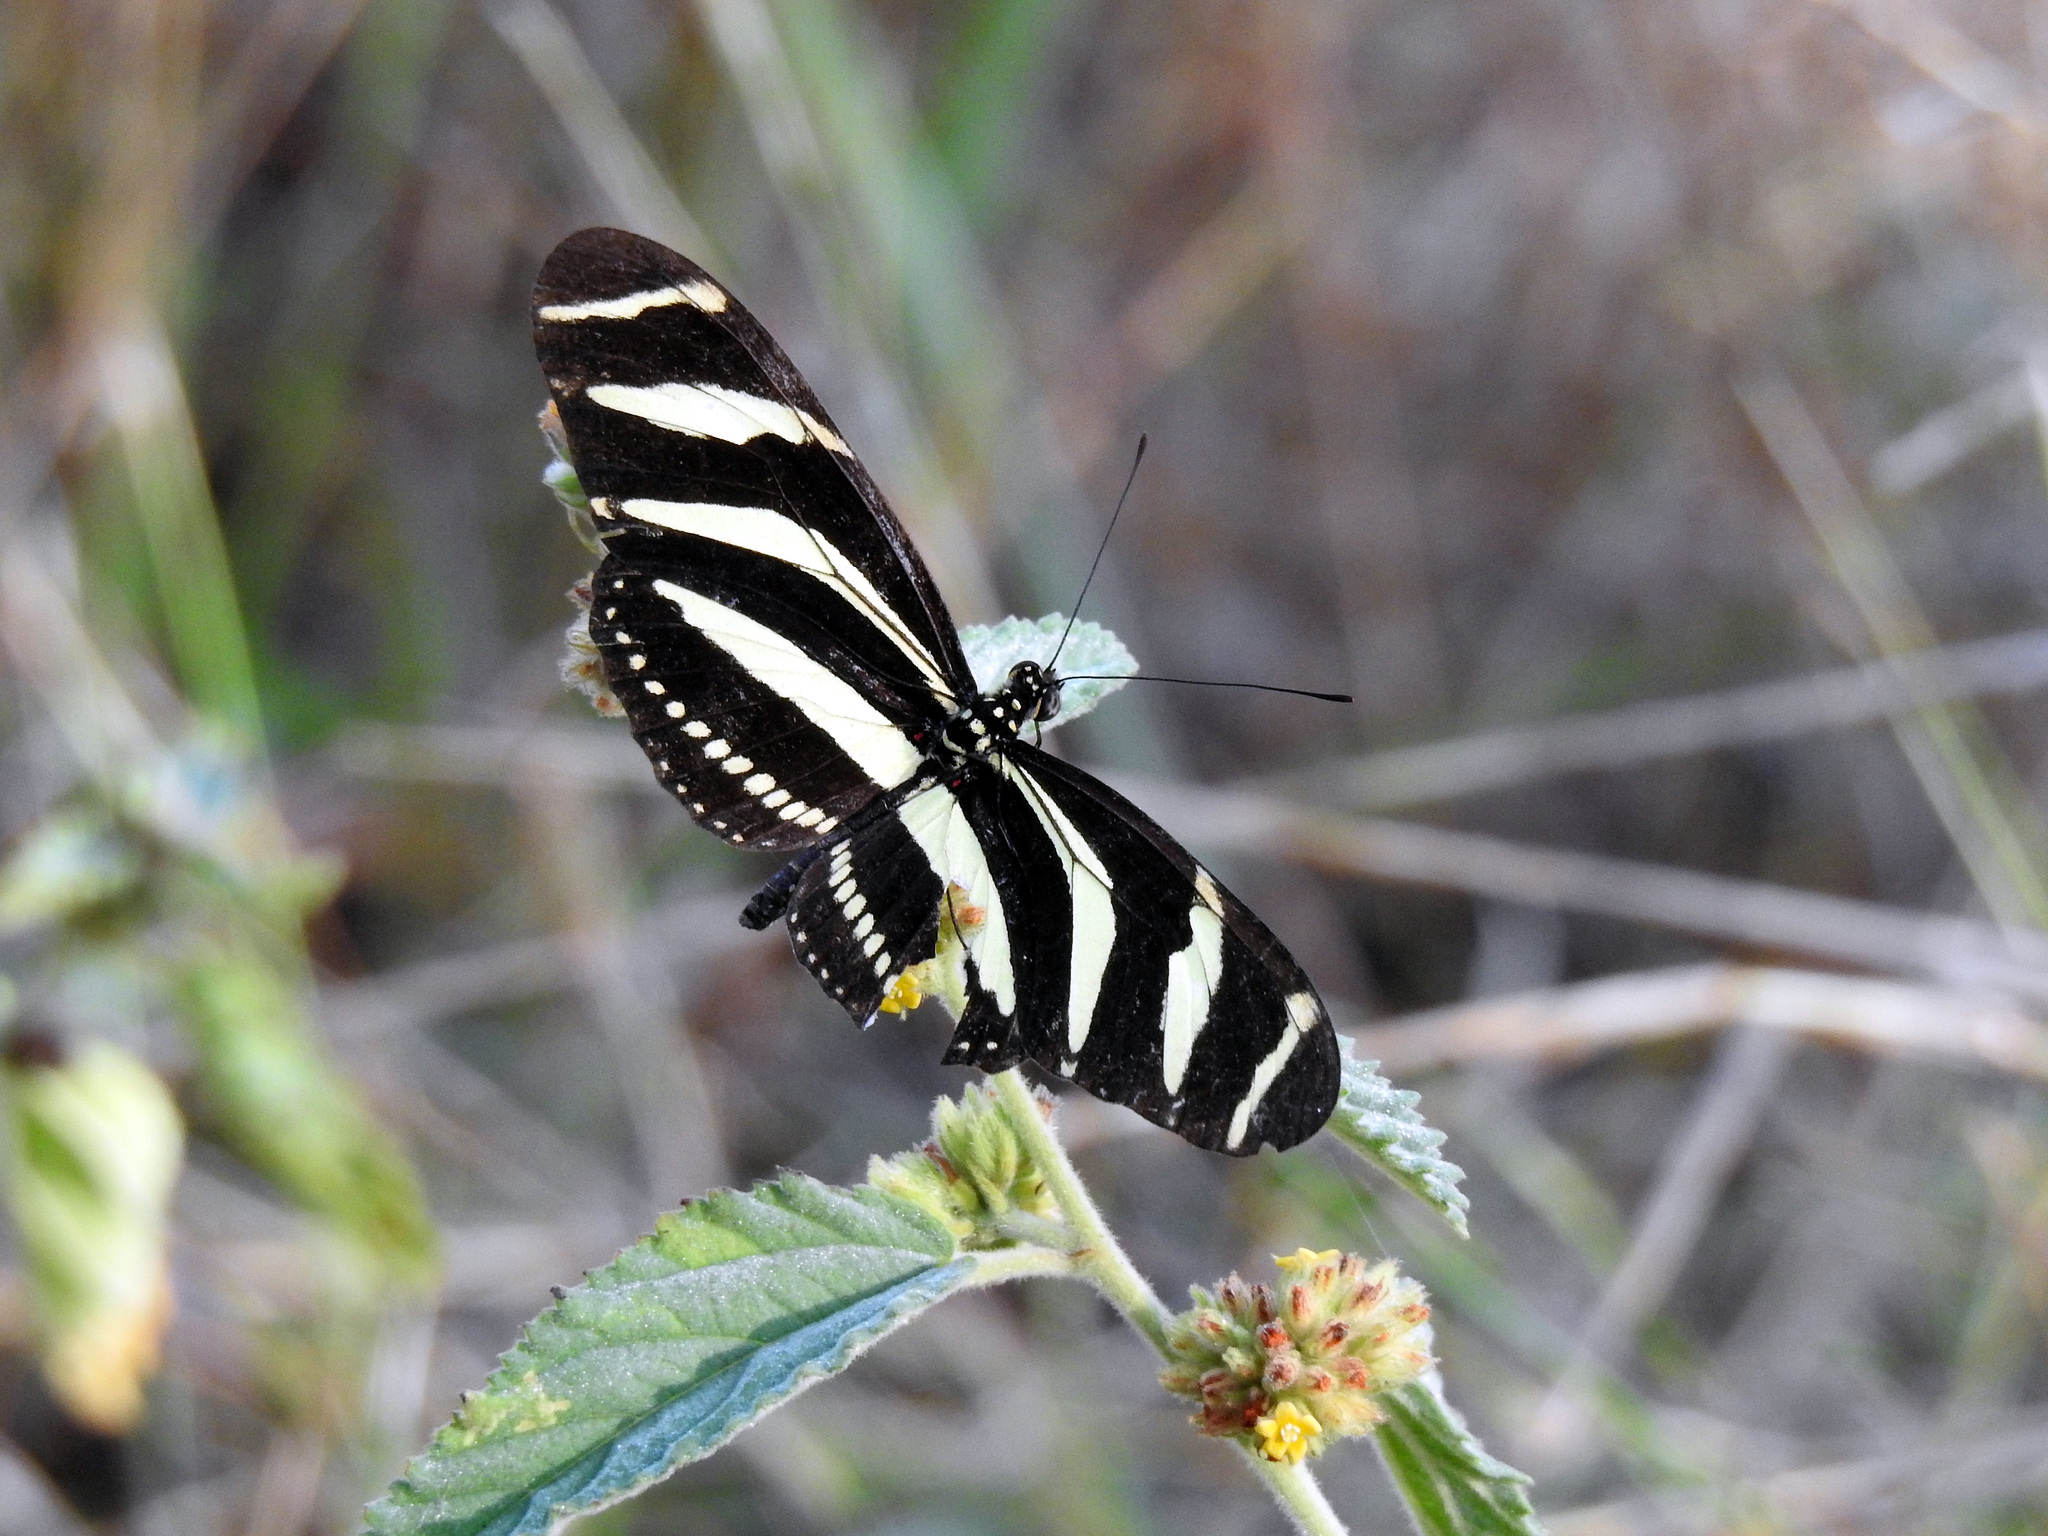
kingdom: Animalia
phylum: Arthropoda
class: Insecta
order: Lepidoptera
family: Nymphalidae
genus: Heliconius
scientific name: Heliconius charithonia
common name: Zebra long wing
